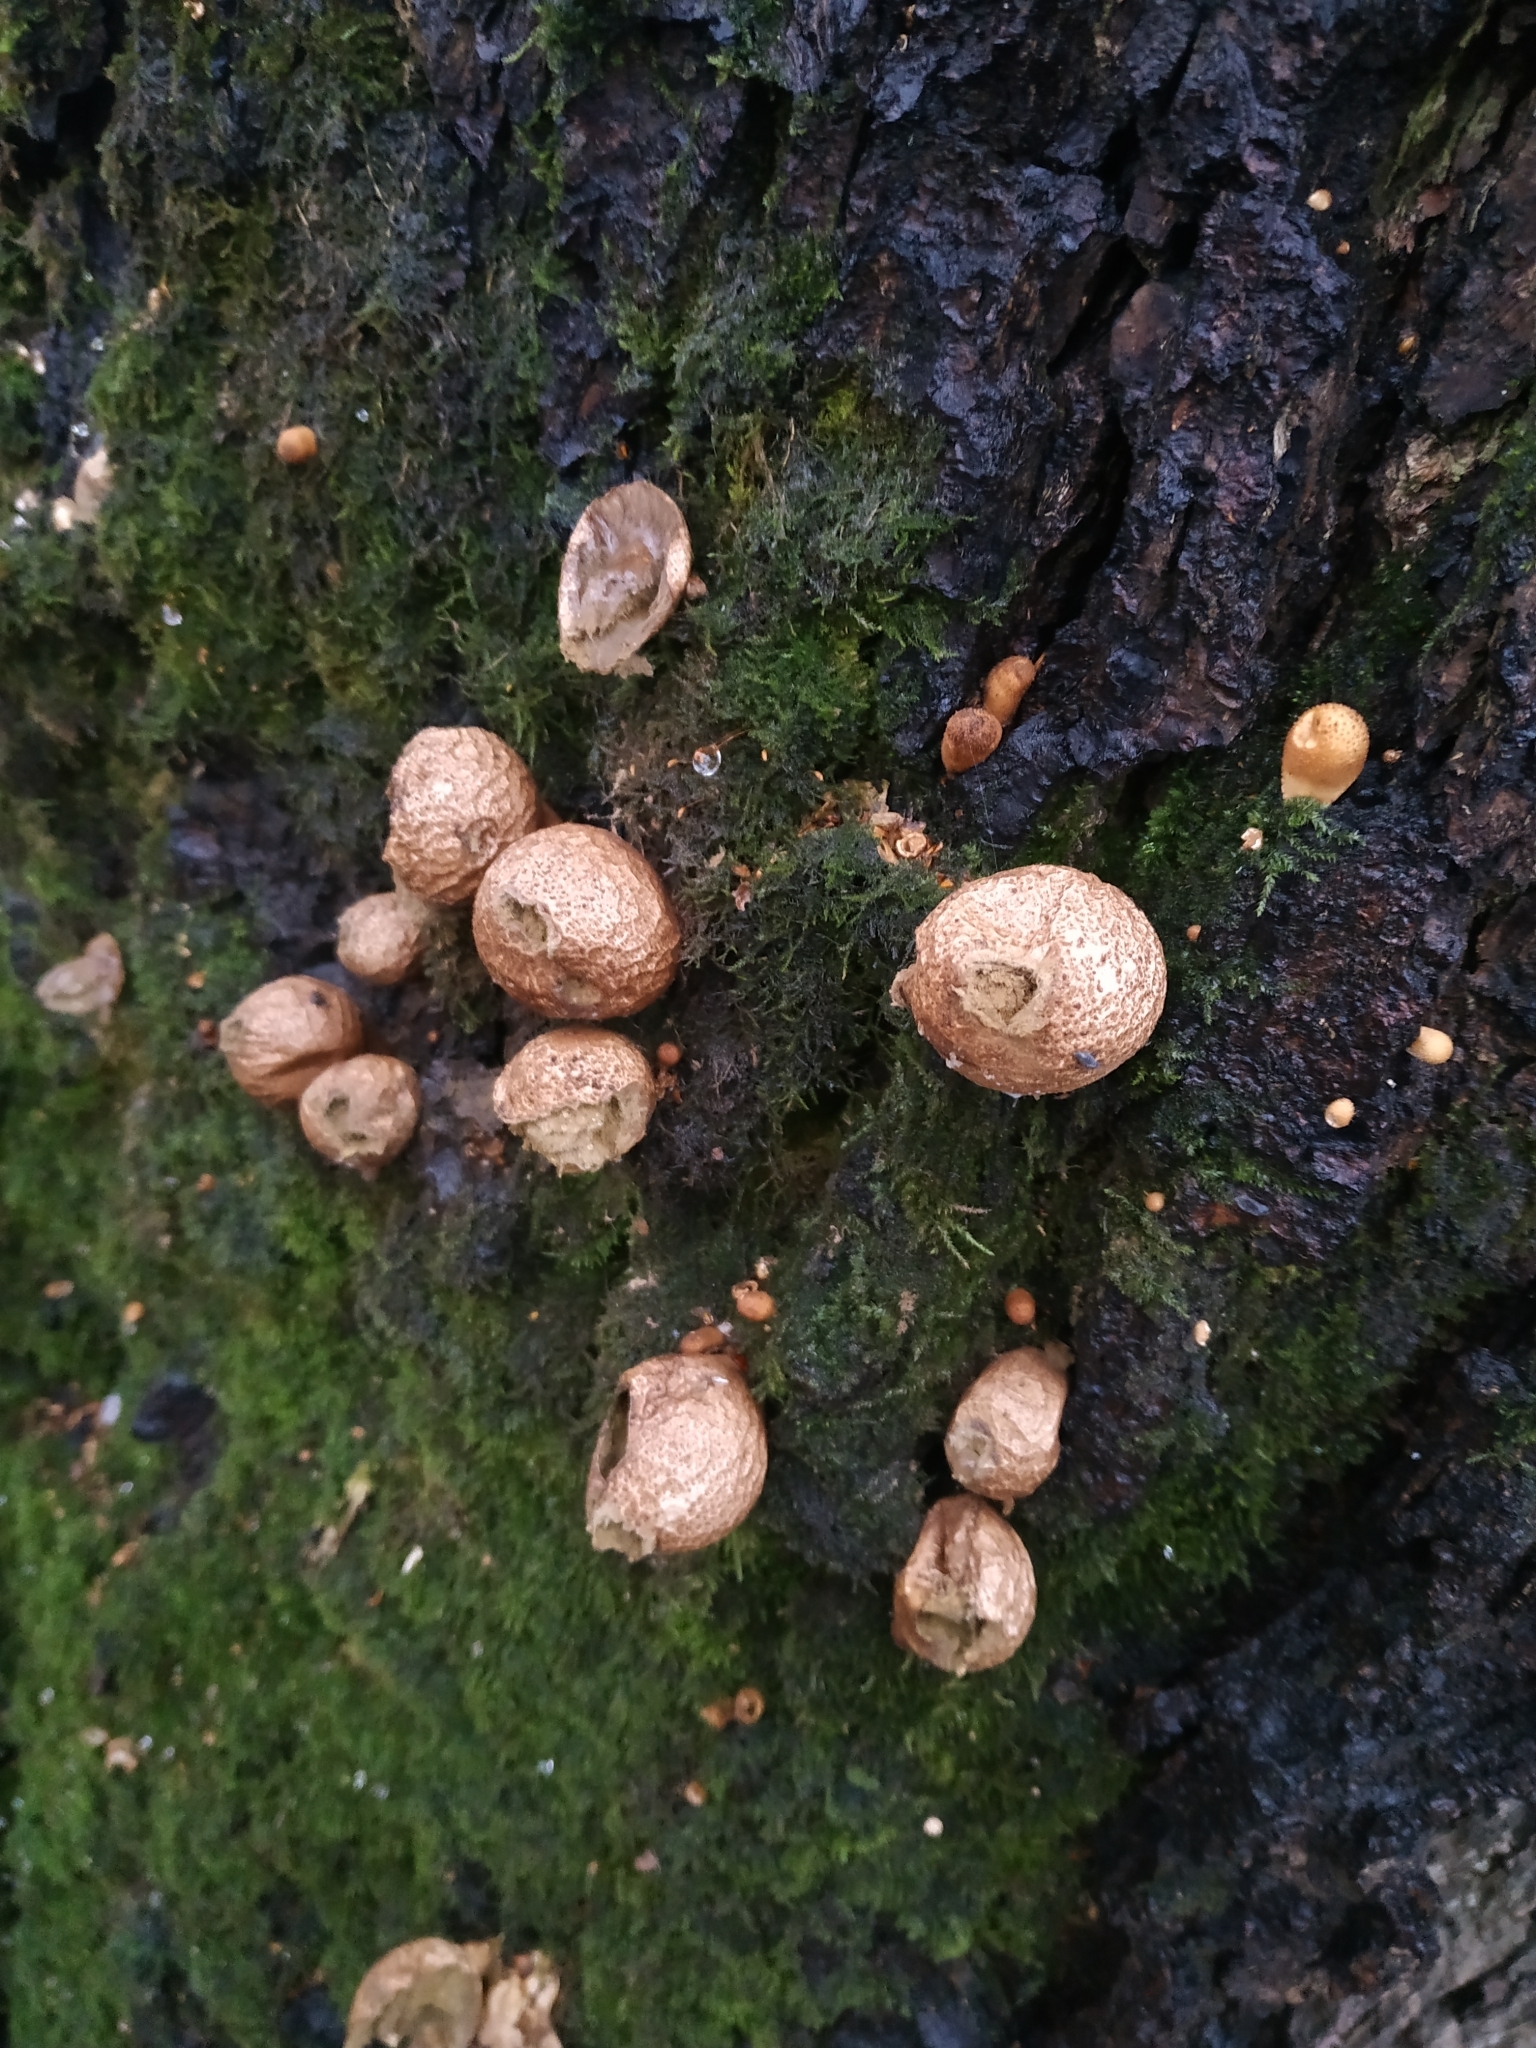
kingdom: Fungi
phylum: Basidiomycota
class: Agaricomycetes
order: Agaricales
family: Lycoperdaceae
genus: Apioperdon
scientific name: Apioperdon pyriforme
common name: Pear-shaped puffball
